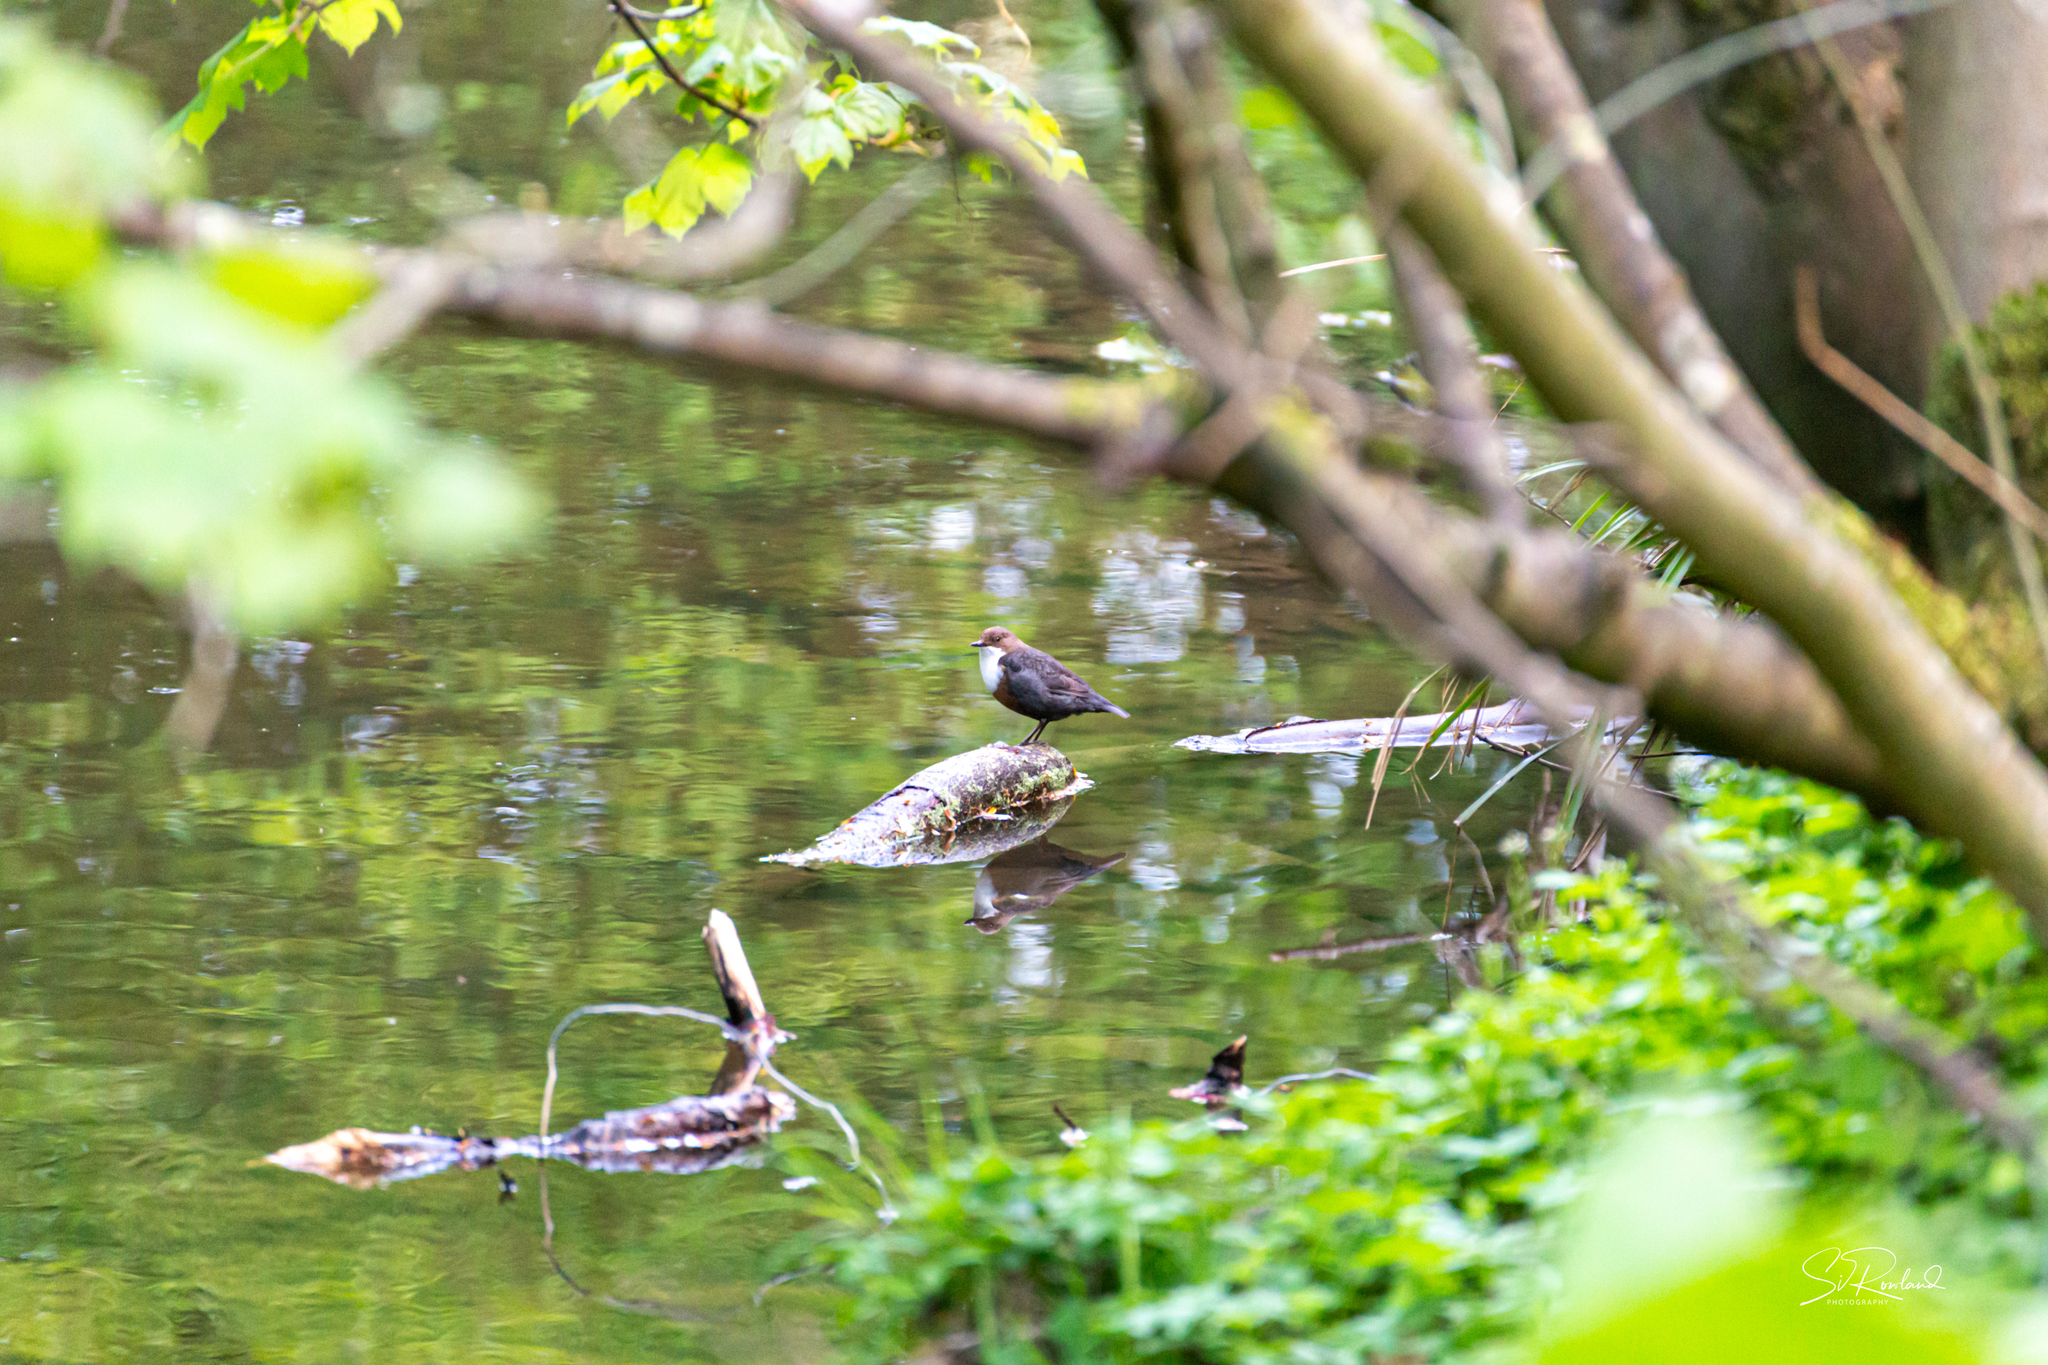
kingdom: Animalia
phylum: Chordata
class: Aves
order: Passeriformes
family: Cinclidae
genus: Cinclus
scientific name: Cinclus cinclus
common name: White-throated dipper
